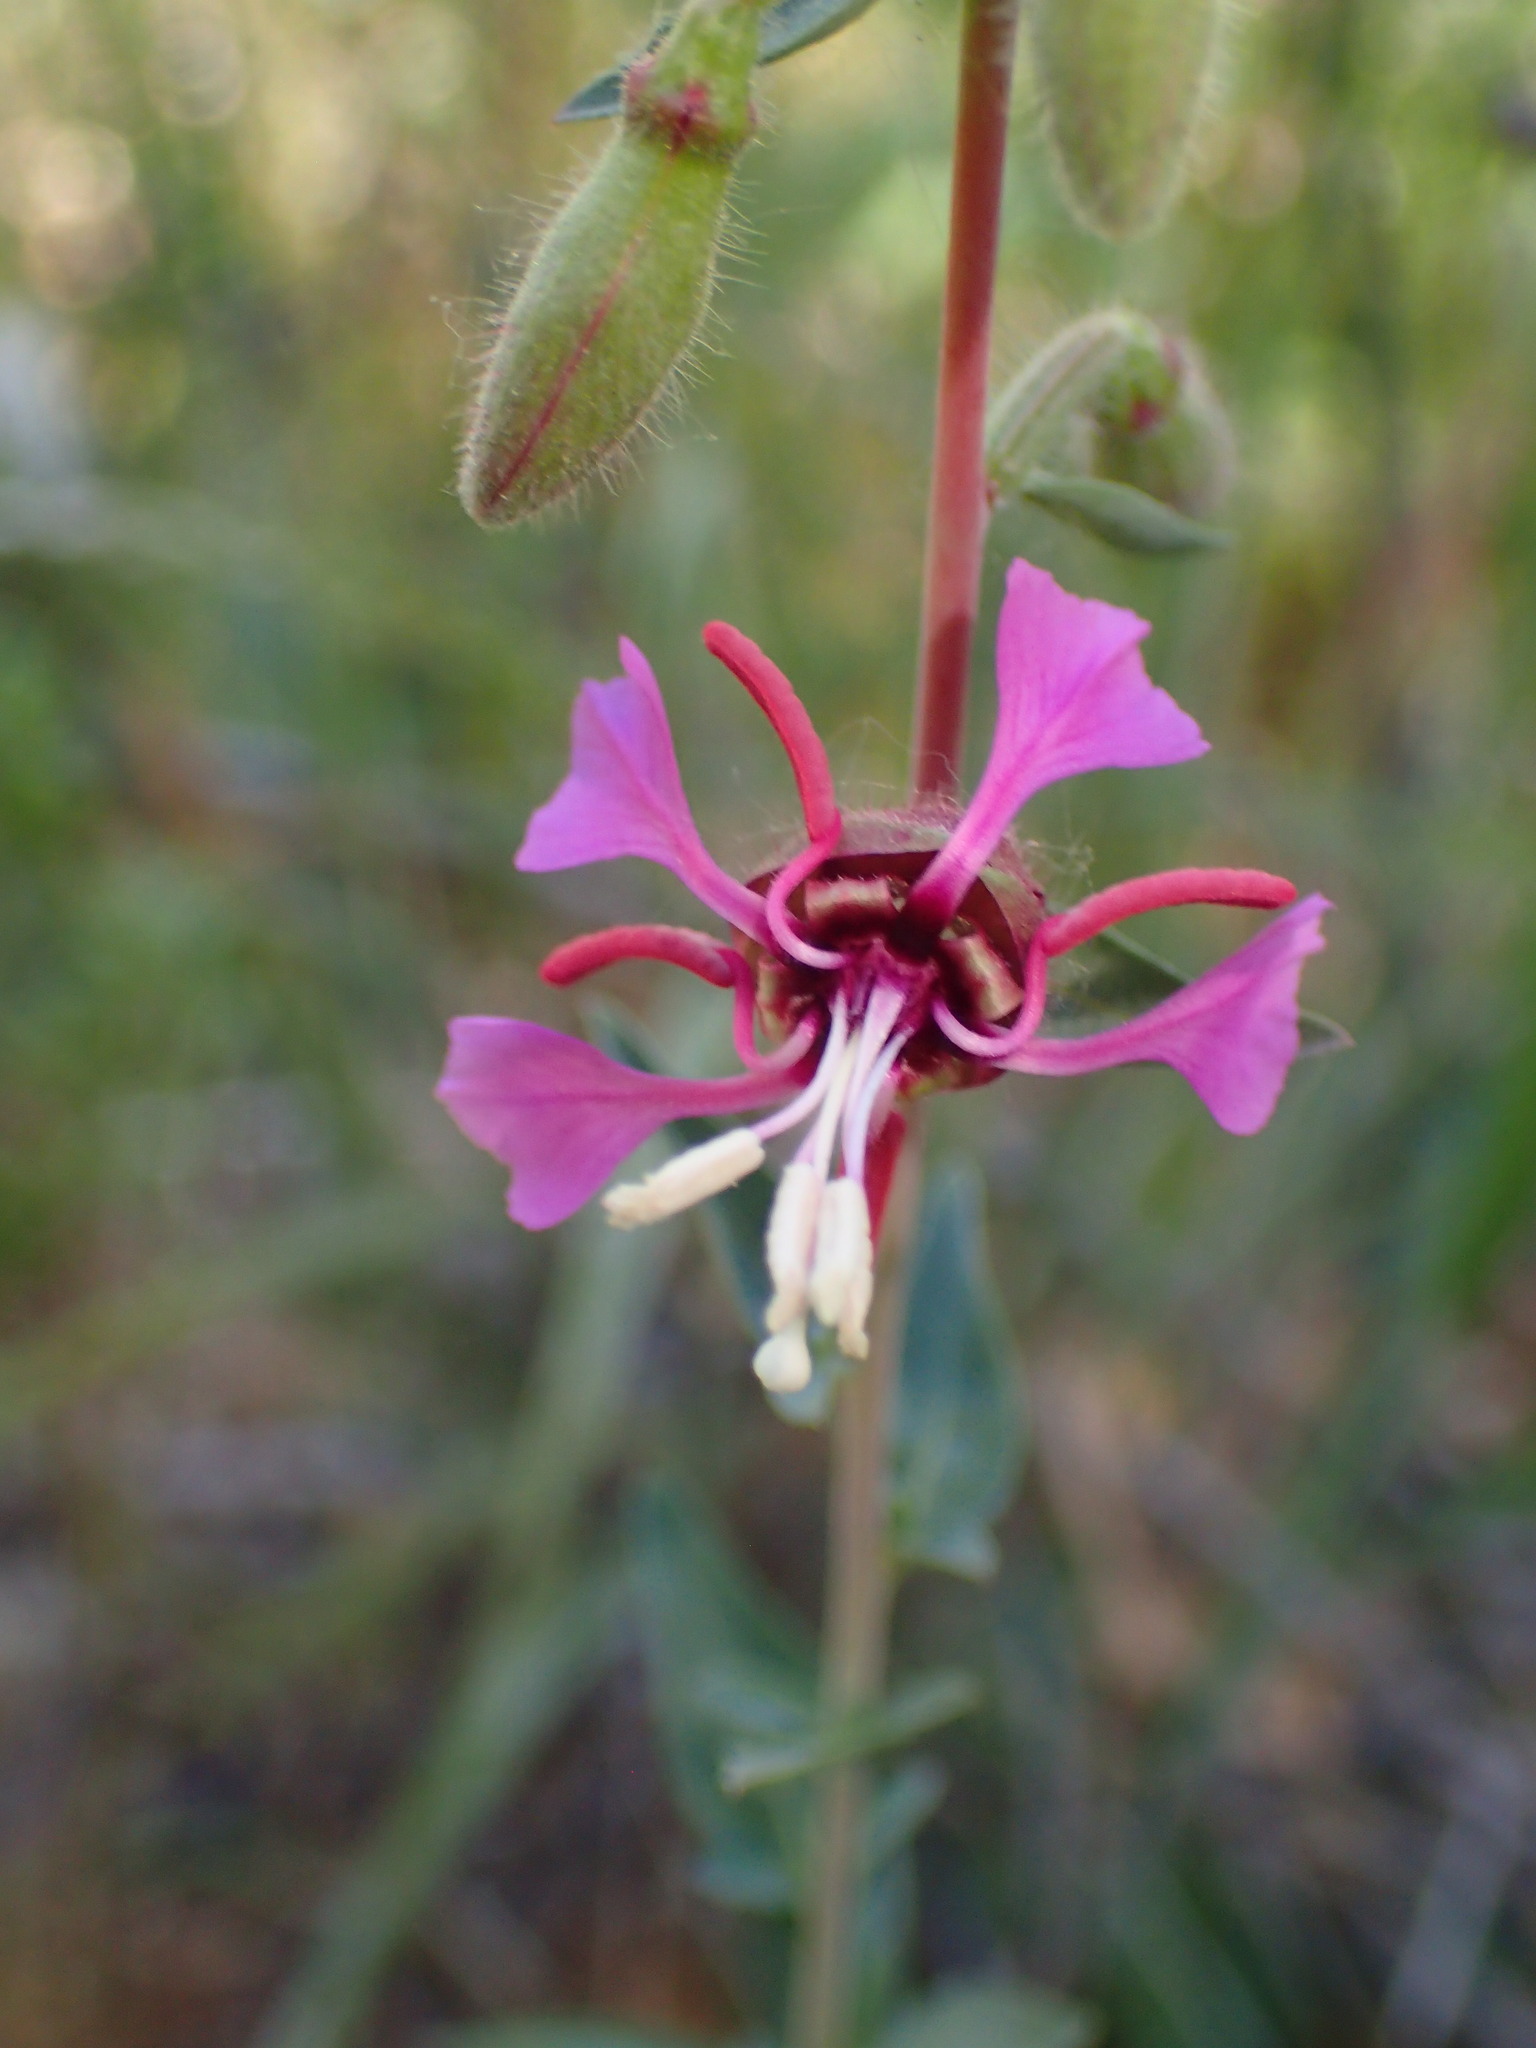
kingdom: Plantae
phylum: Tracheophyta
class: Magnoliopsida
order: Myrtales
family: Onagraceae
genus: Clarkia
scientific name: Clarkia unguiculata
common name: Clarkia
